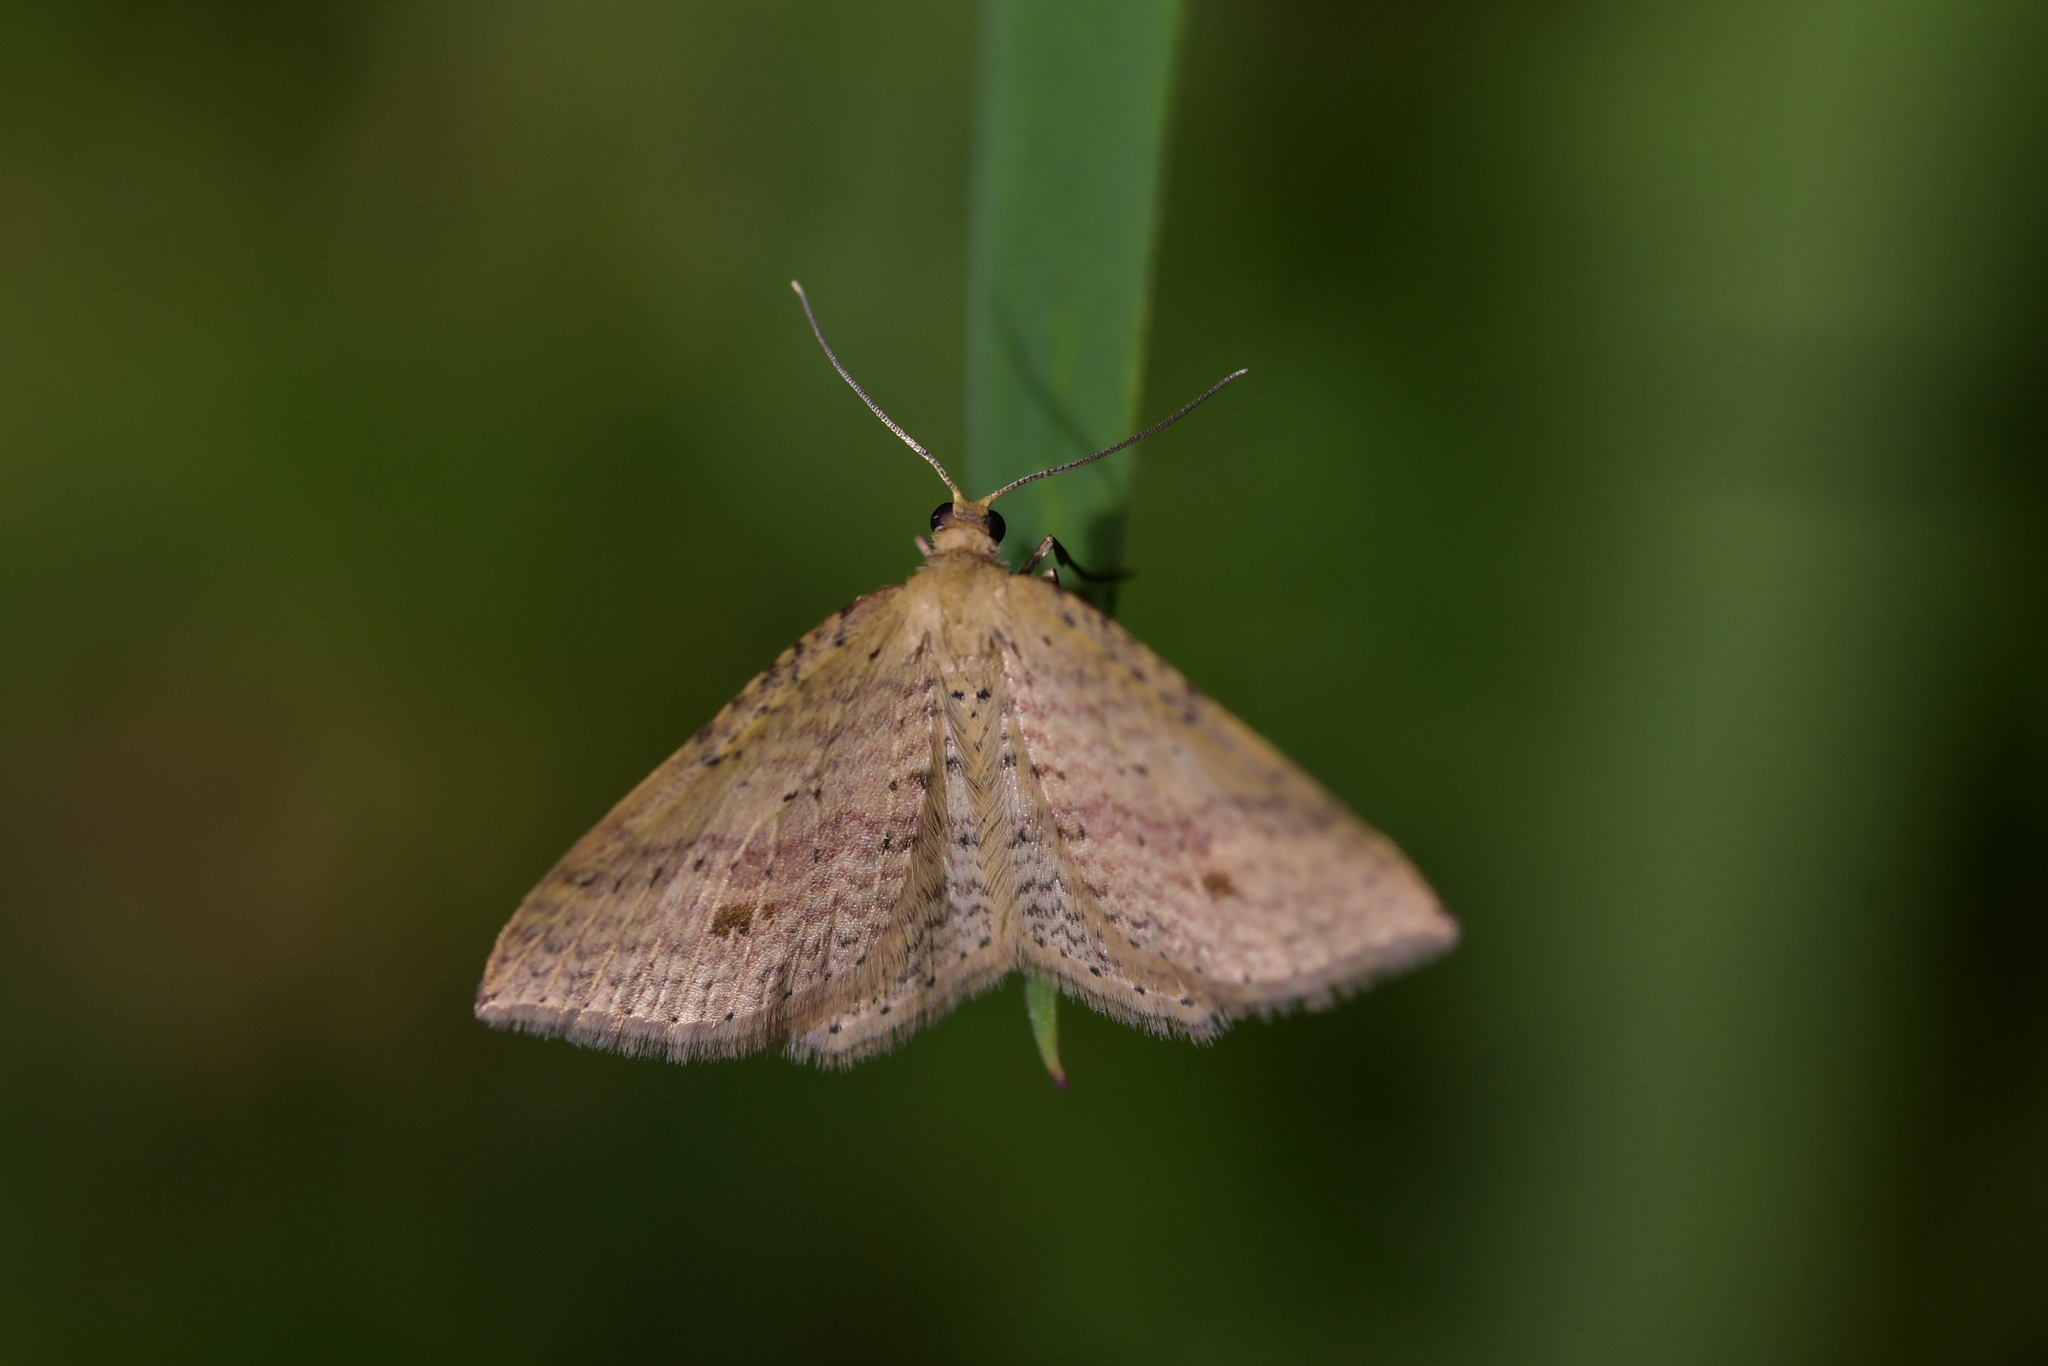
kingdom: Animalia
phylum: Arthropoda
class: Insecta
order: Lepidoptera
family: Geometridae
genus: Epicyme
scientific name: Epicyme rubropunctaria
